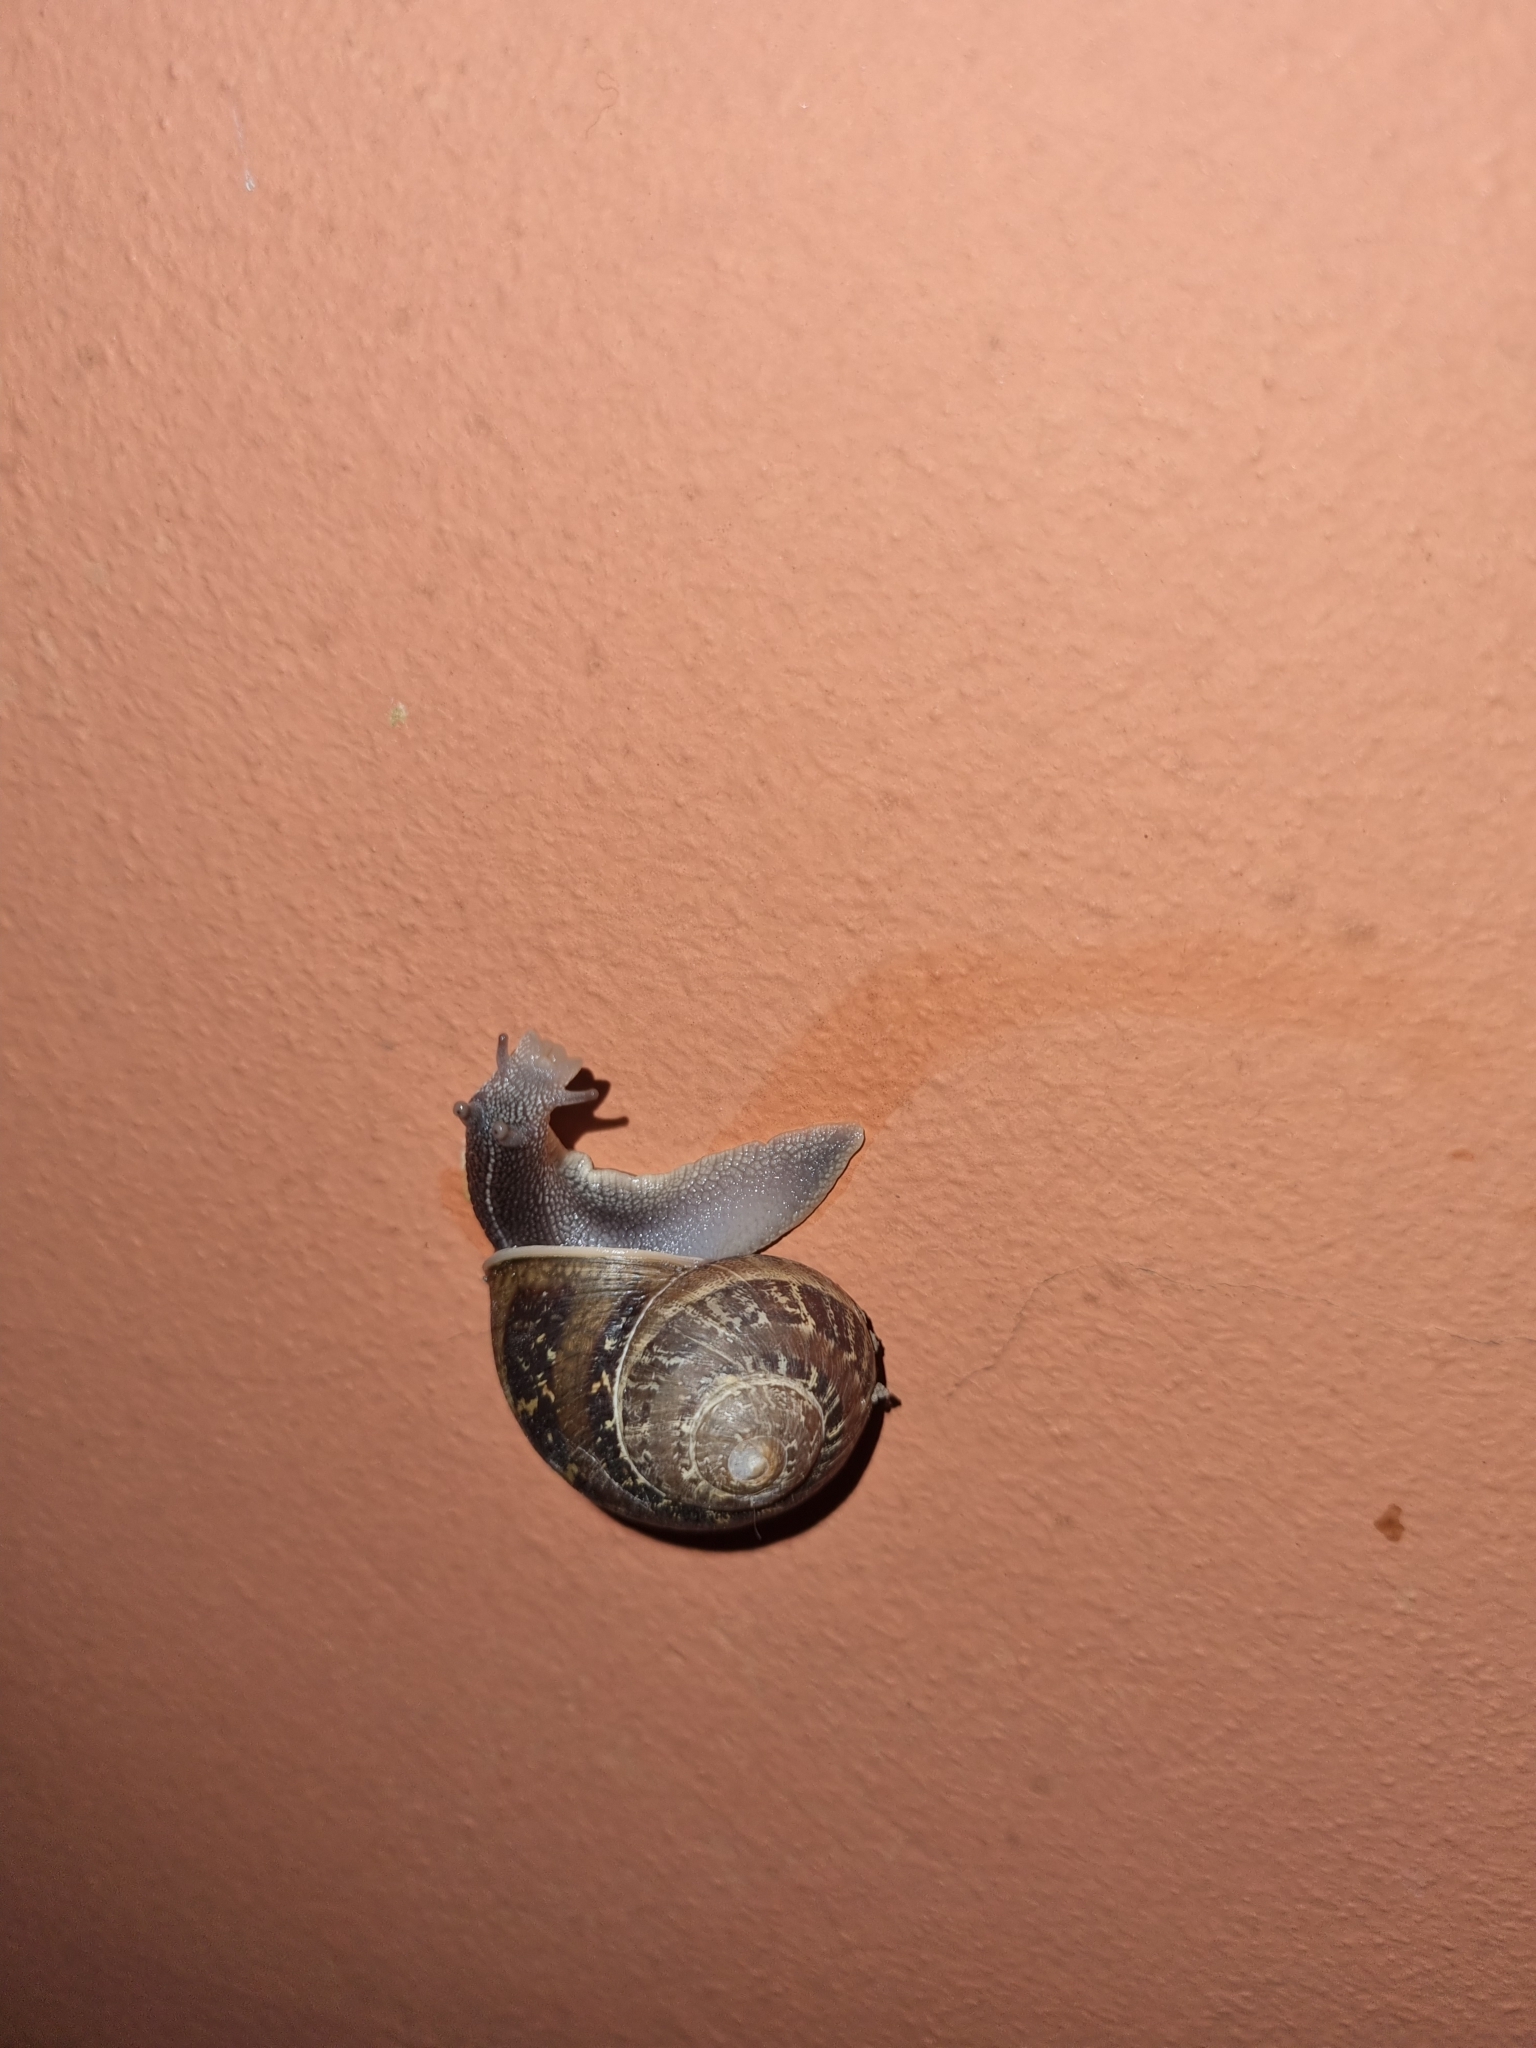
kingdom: Animalia
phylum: Mollusca
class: Gastropoda
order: Stylommatophora
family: Helicidae
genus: Cornu
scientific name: Cornu aspersum
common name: Brown garden snail
